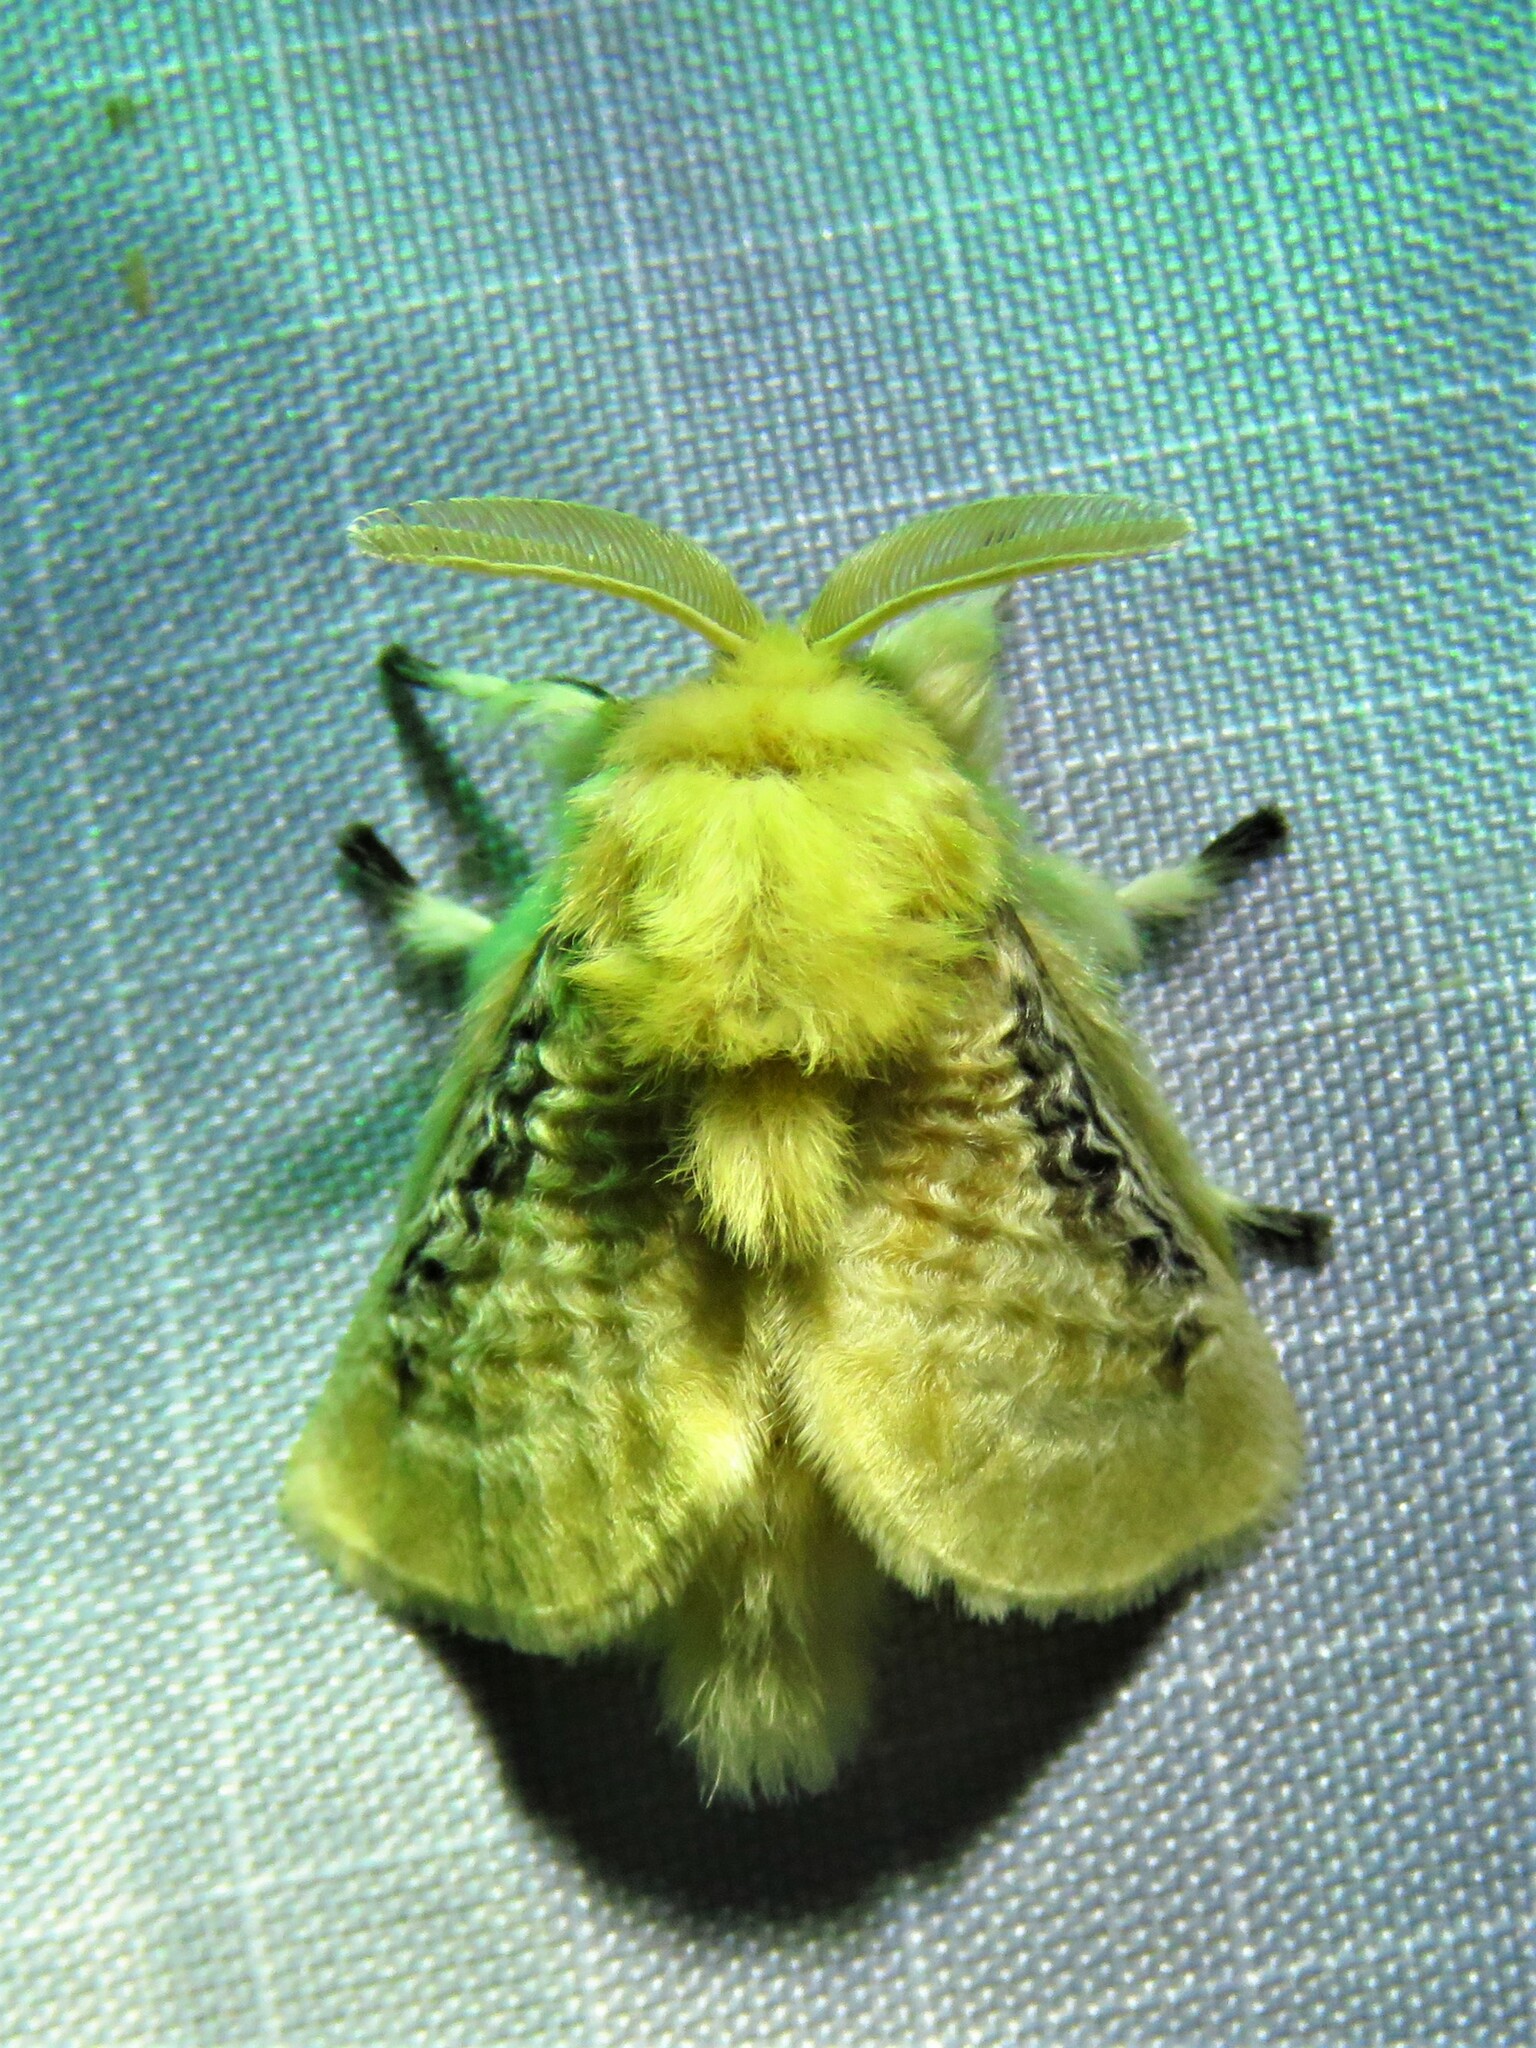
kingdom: Animalia
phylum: Arthropoda
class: Insecta
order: Lepidoptera
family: Megalopygidae
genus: Megalopyge
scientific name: Megalopyge crispata
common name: Black-waved flannel moth
